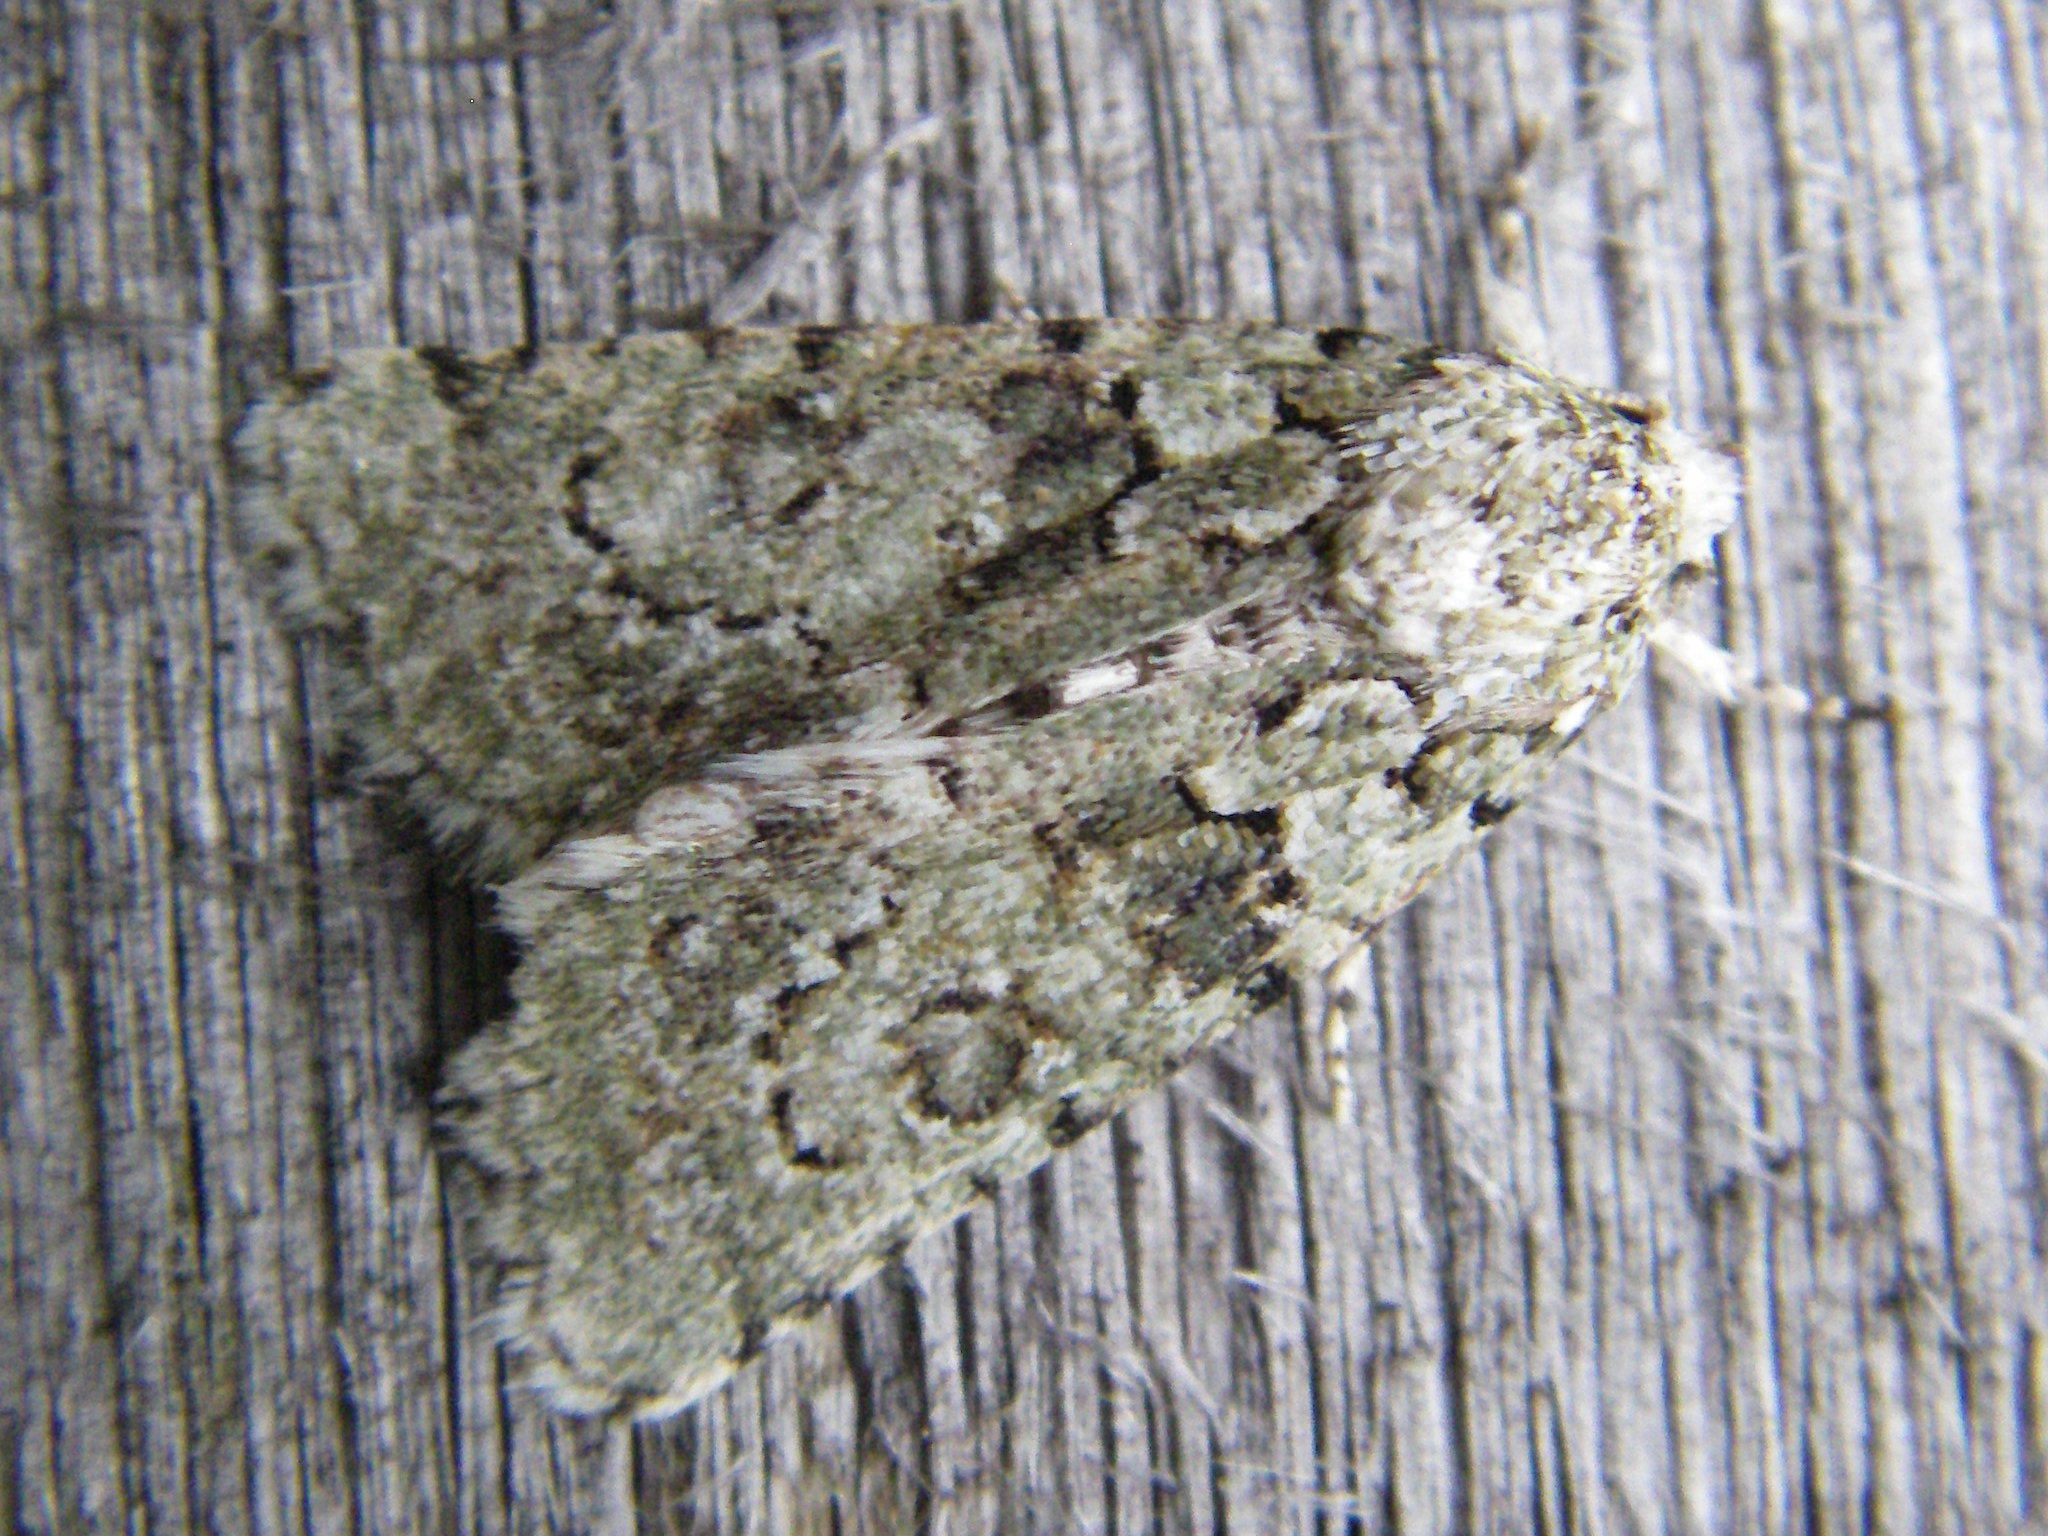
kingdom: Animalia
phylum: Arthropoda
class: Insecta
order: Lepidoptera
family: Noctuidae
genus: Nyctobrya
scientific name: Nyctobrya muralis
